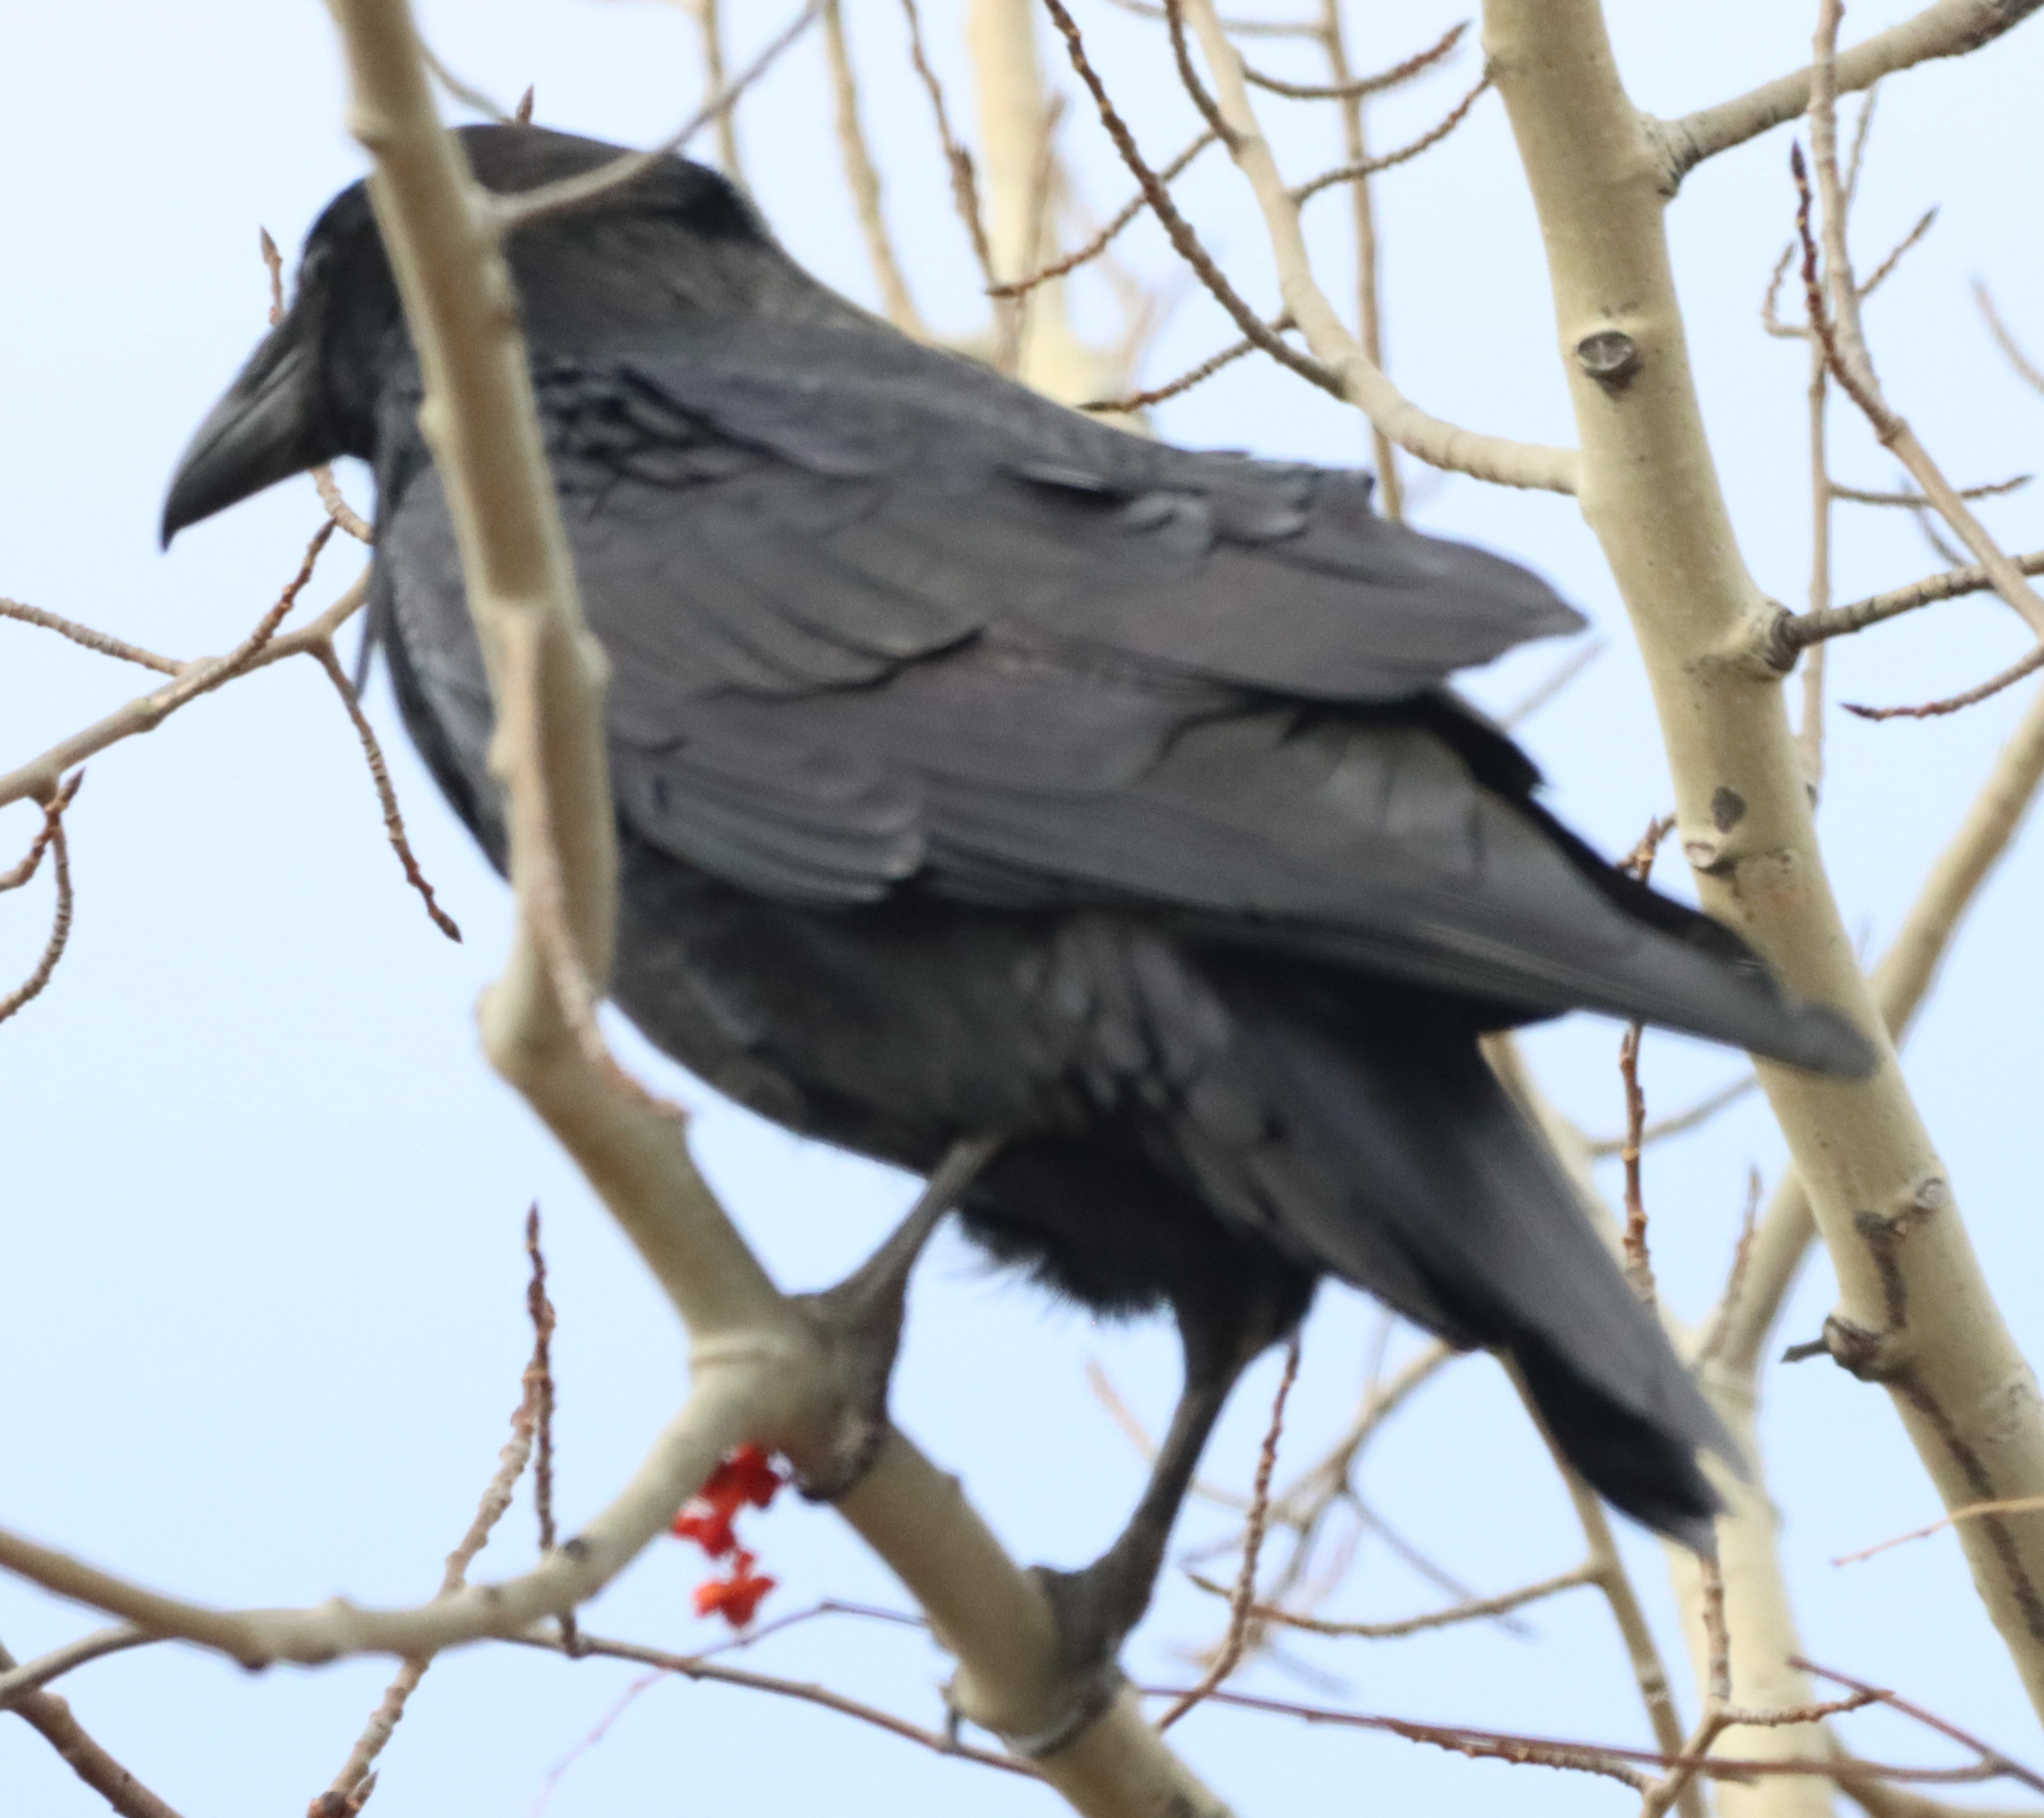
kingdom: Animalia
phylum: Chordata
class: Aves
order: Passeriformes
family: Corvidae
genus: Corvus
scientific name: Corvus corax
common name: Common raven
